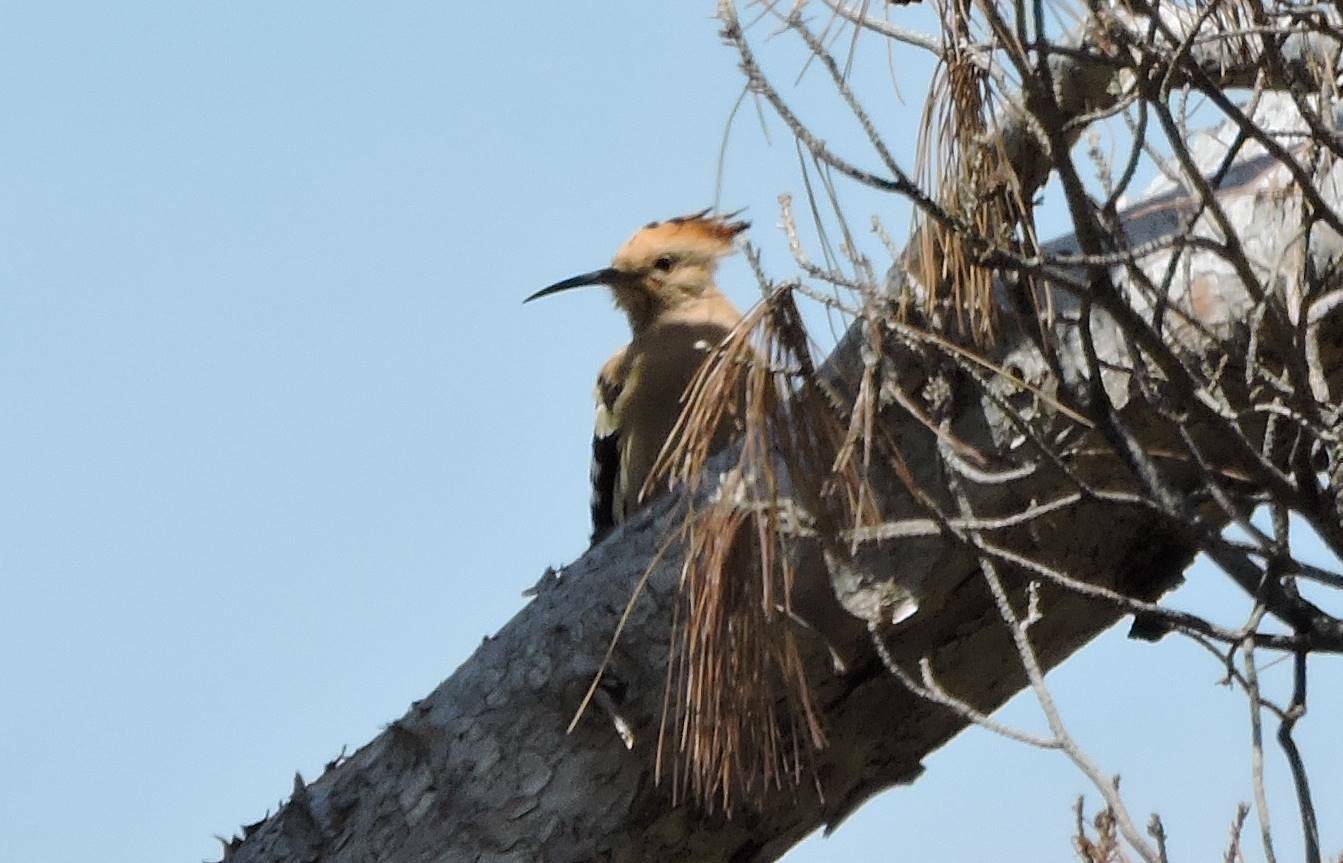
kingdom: Animalia
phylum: Chordata
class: Aves
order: Bucerotiformes
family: Upupidae
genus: Upupa
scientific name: Upupa epops
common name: Eurasian hoopoe
